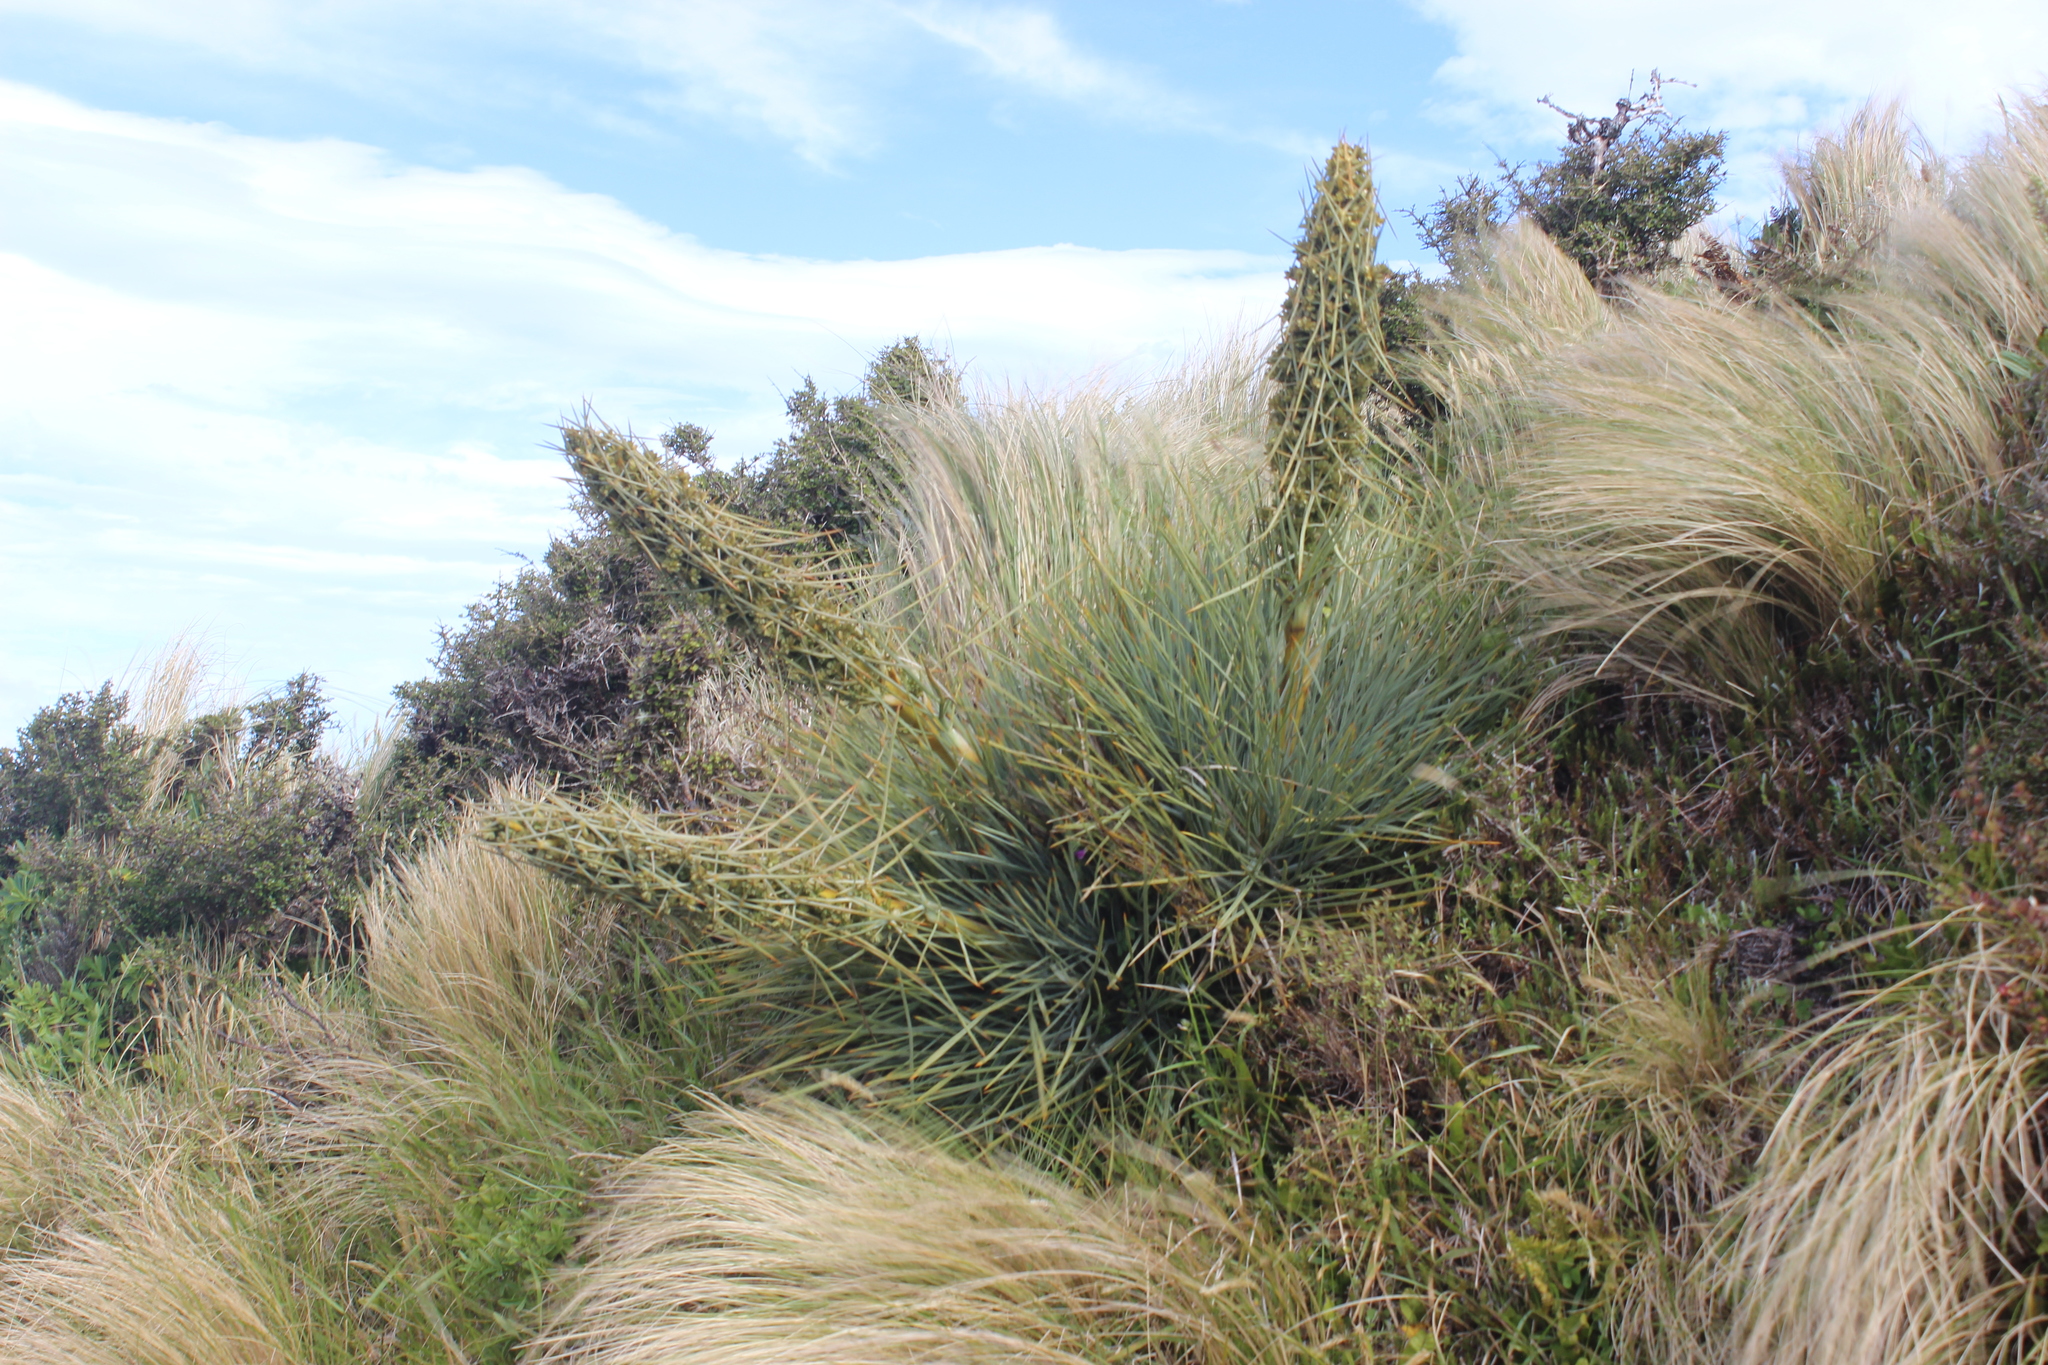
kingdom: Plantae
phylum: Tracheophyta
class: Magnoliopsida
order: Apiales
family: Apiaceae
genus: Aciphylla
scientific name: Aciphylla squarrosa
